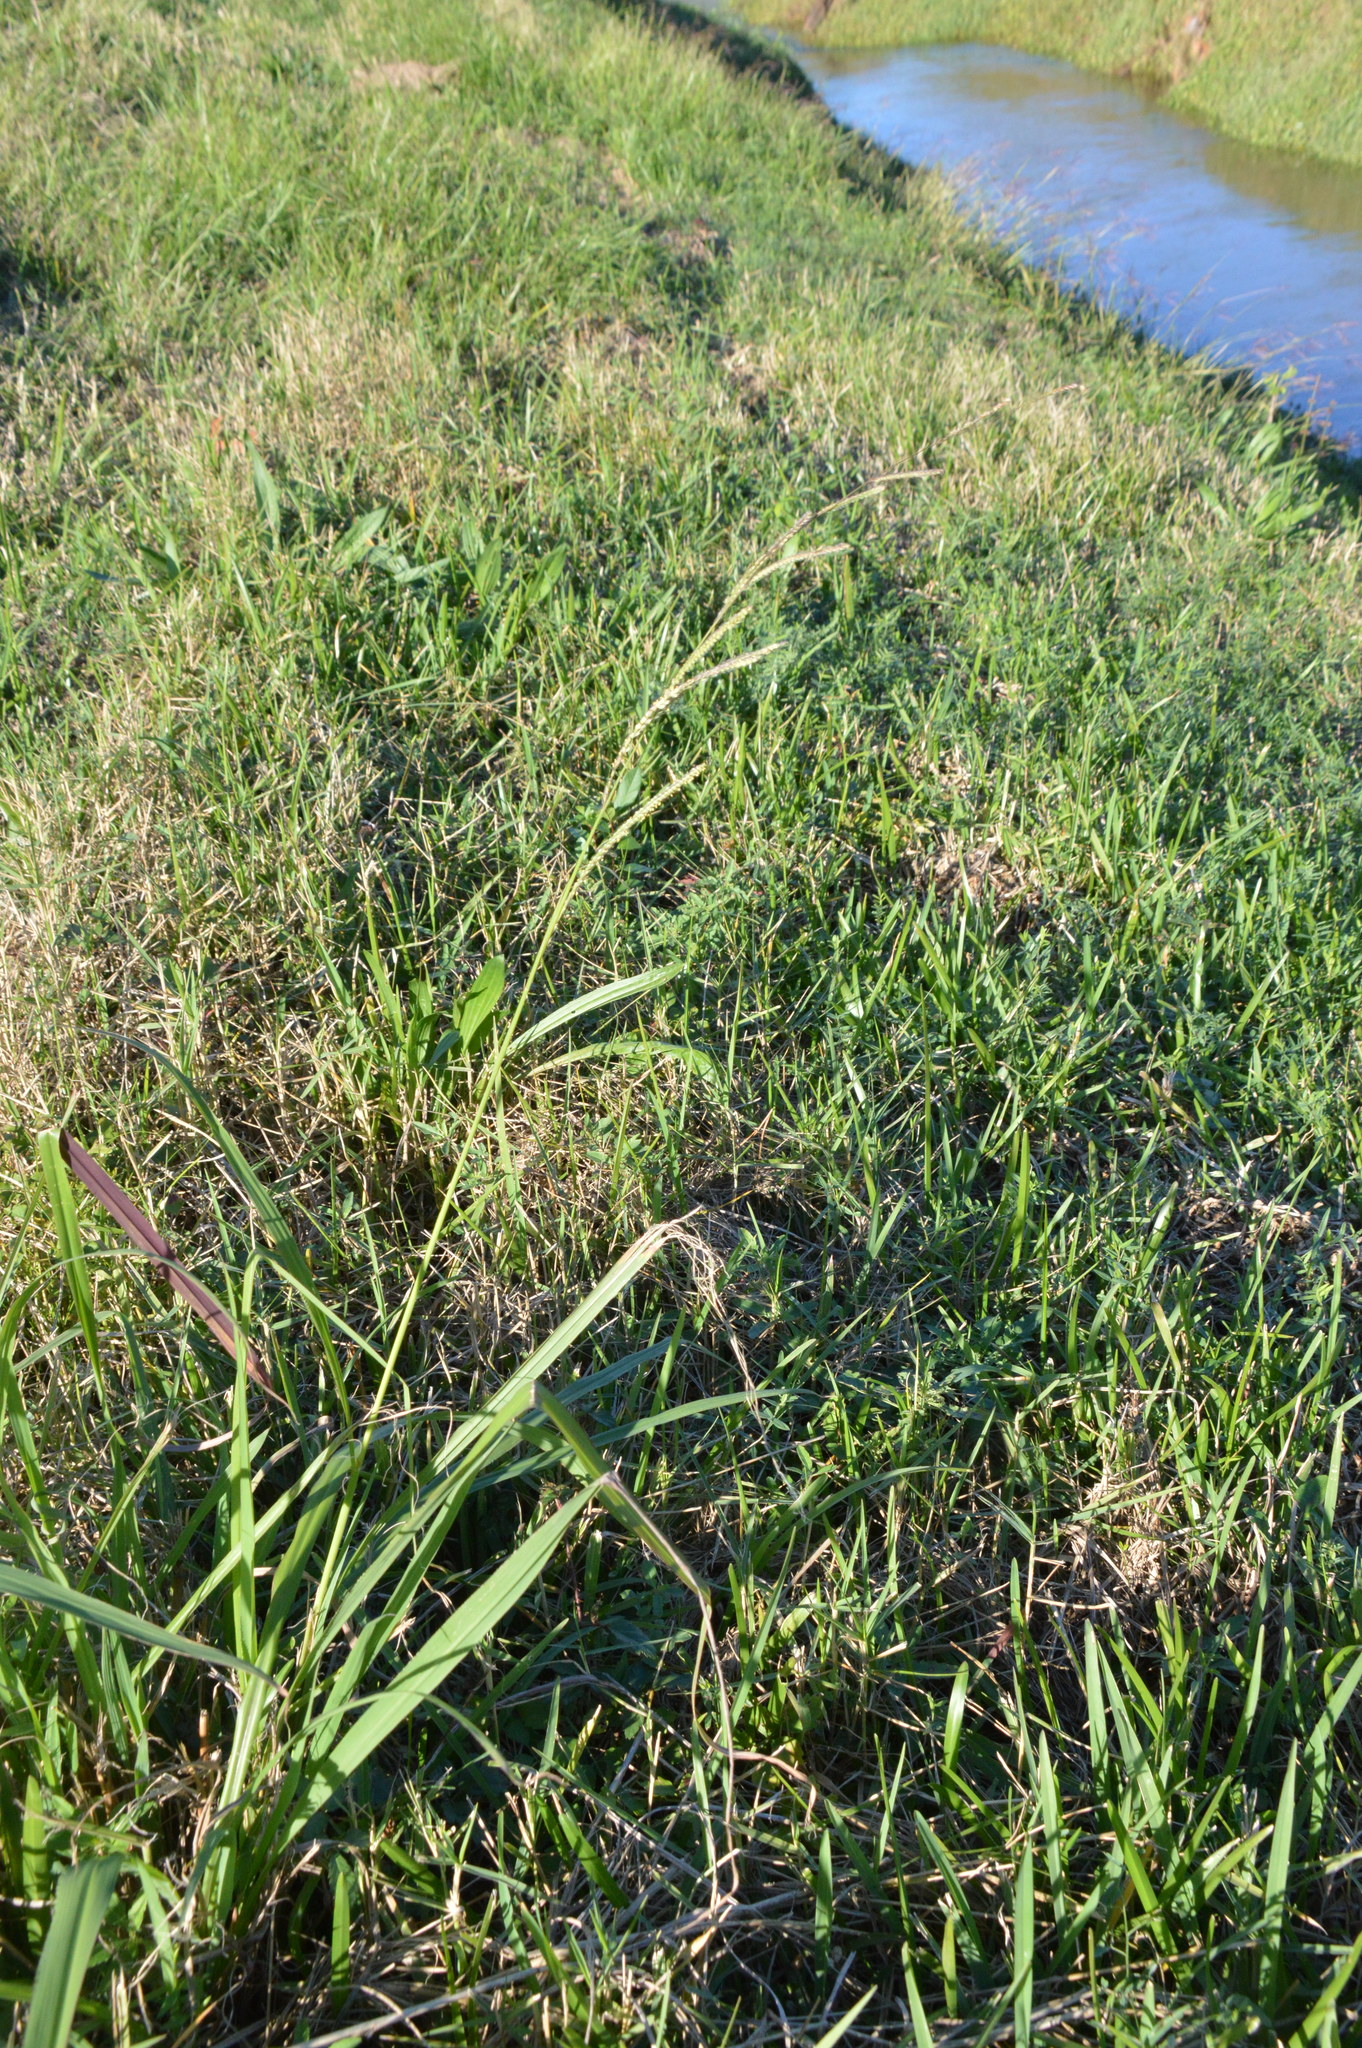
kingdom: Plantae
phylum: Tracheophyta
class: Liliopsida
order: Poales
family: Poaceae
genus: Paspalum
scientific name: Paspalum urvillei
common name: Vasey's grass
